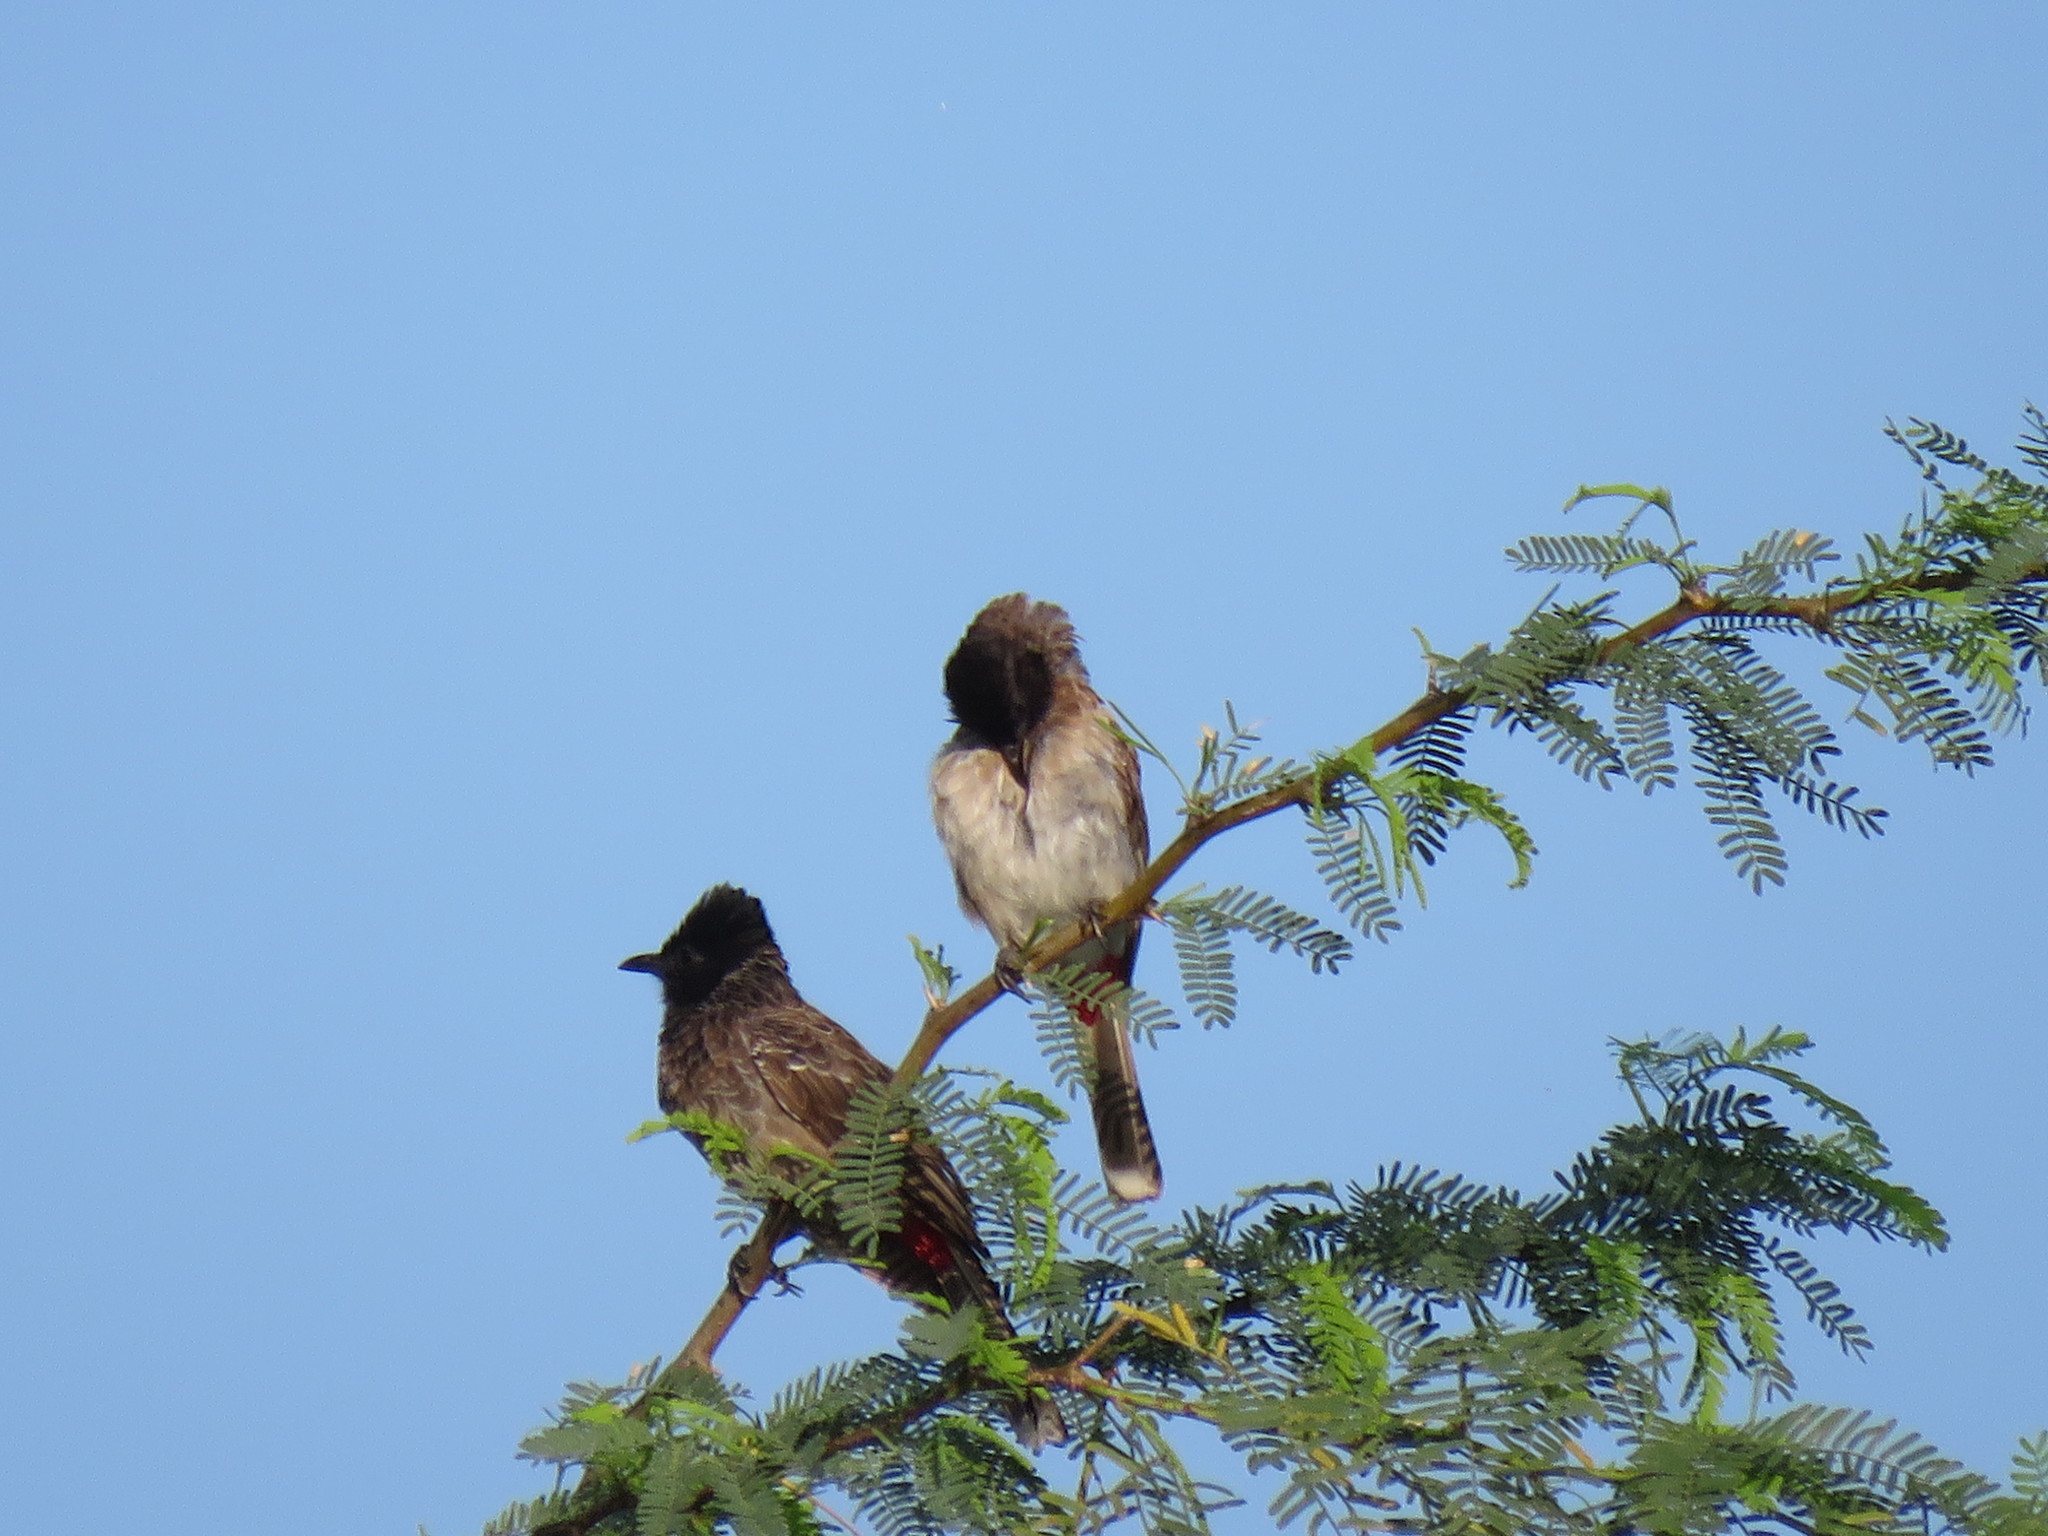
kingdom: Animalia
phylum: Chordata
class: Aves
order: Passeriformes
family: Pycnonotidae
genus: Pycnonotus
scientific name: Pycnonotus cafer
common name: Red-vented bulbul
